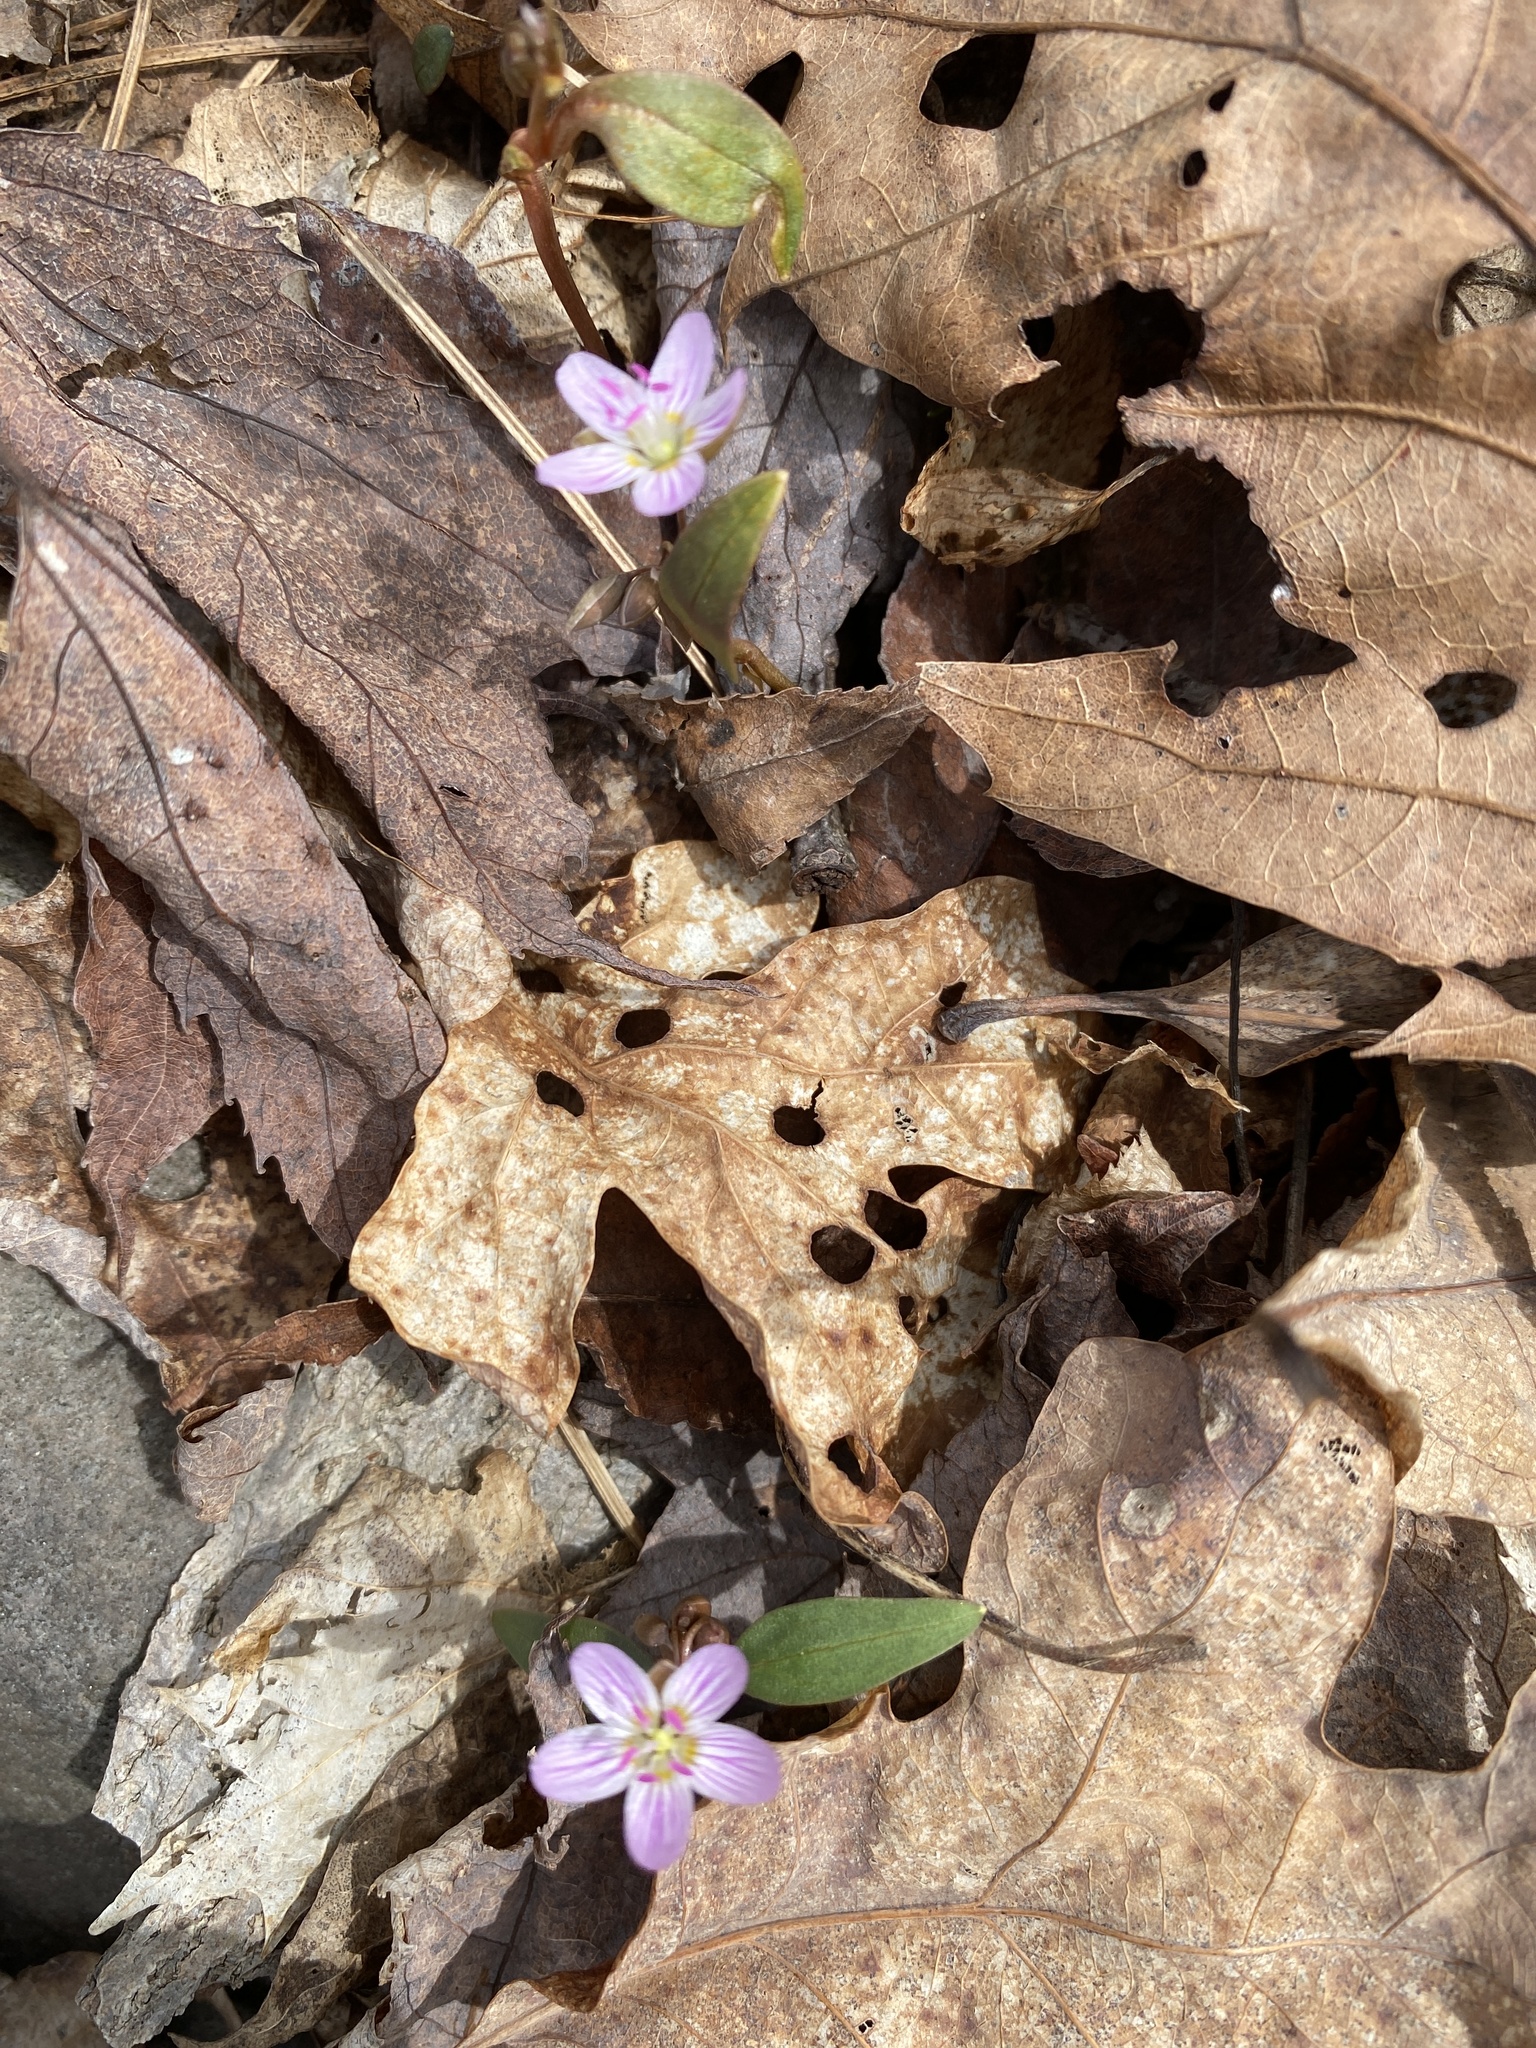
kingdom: Plantae
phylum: Tracheophyta
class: Magnoliopsida
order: Caryophyllales
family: Montiaceae
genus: Claytonia
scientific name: Claytonia caroliniana
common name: Carolina spring beauty
